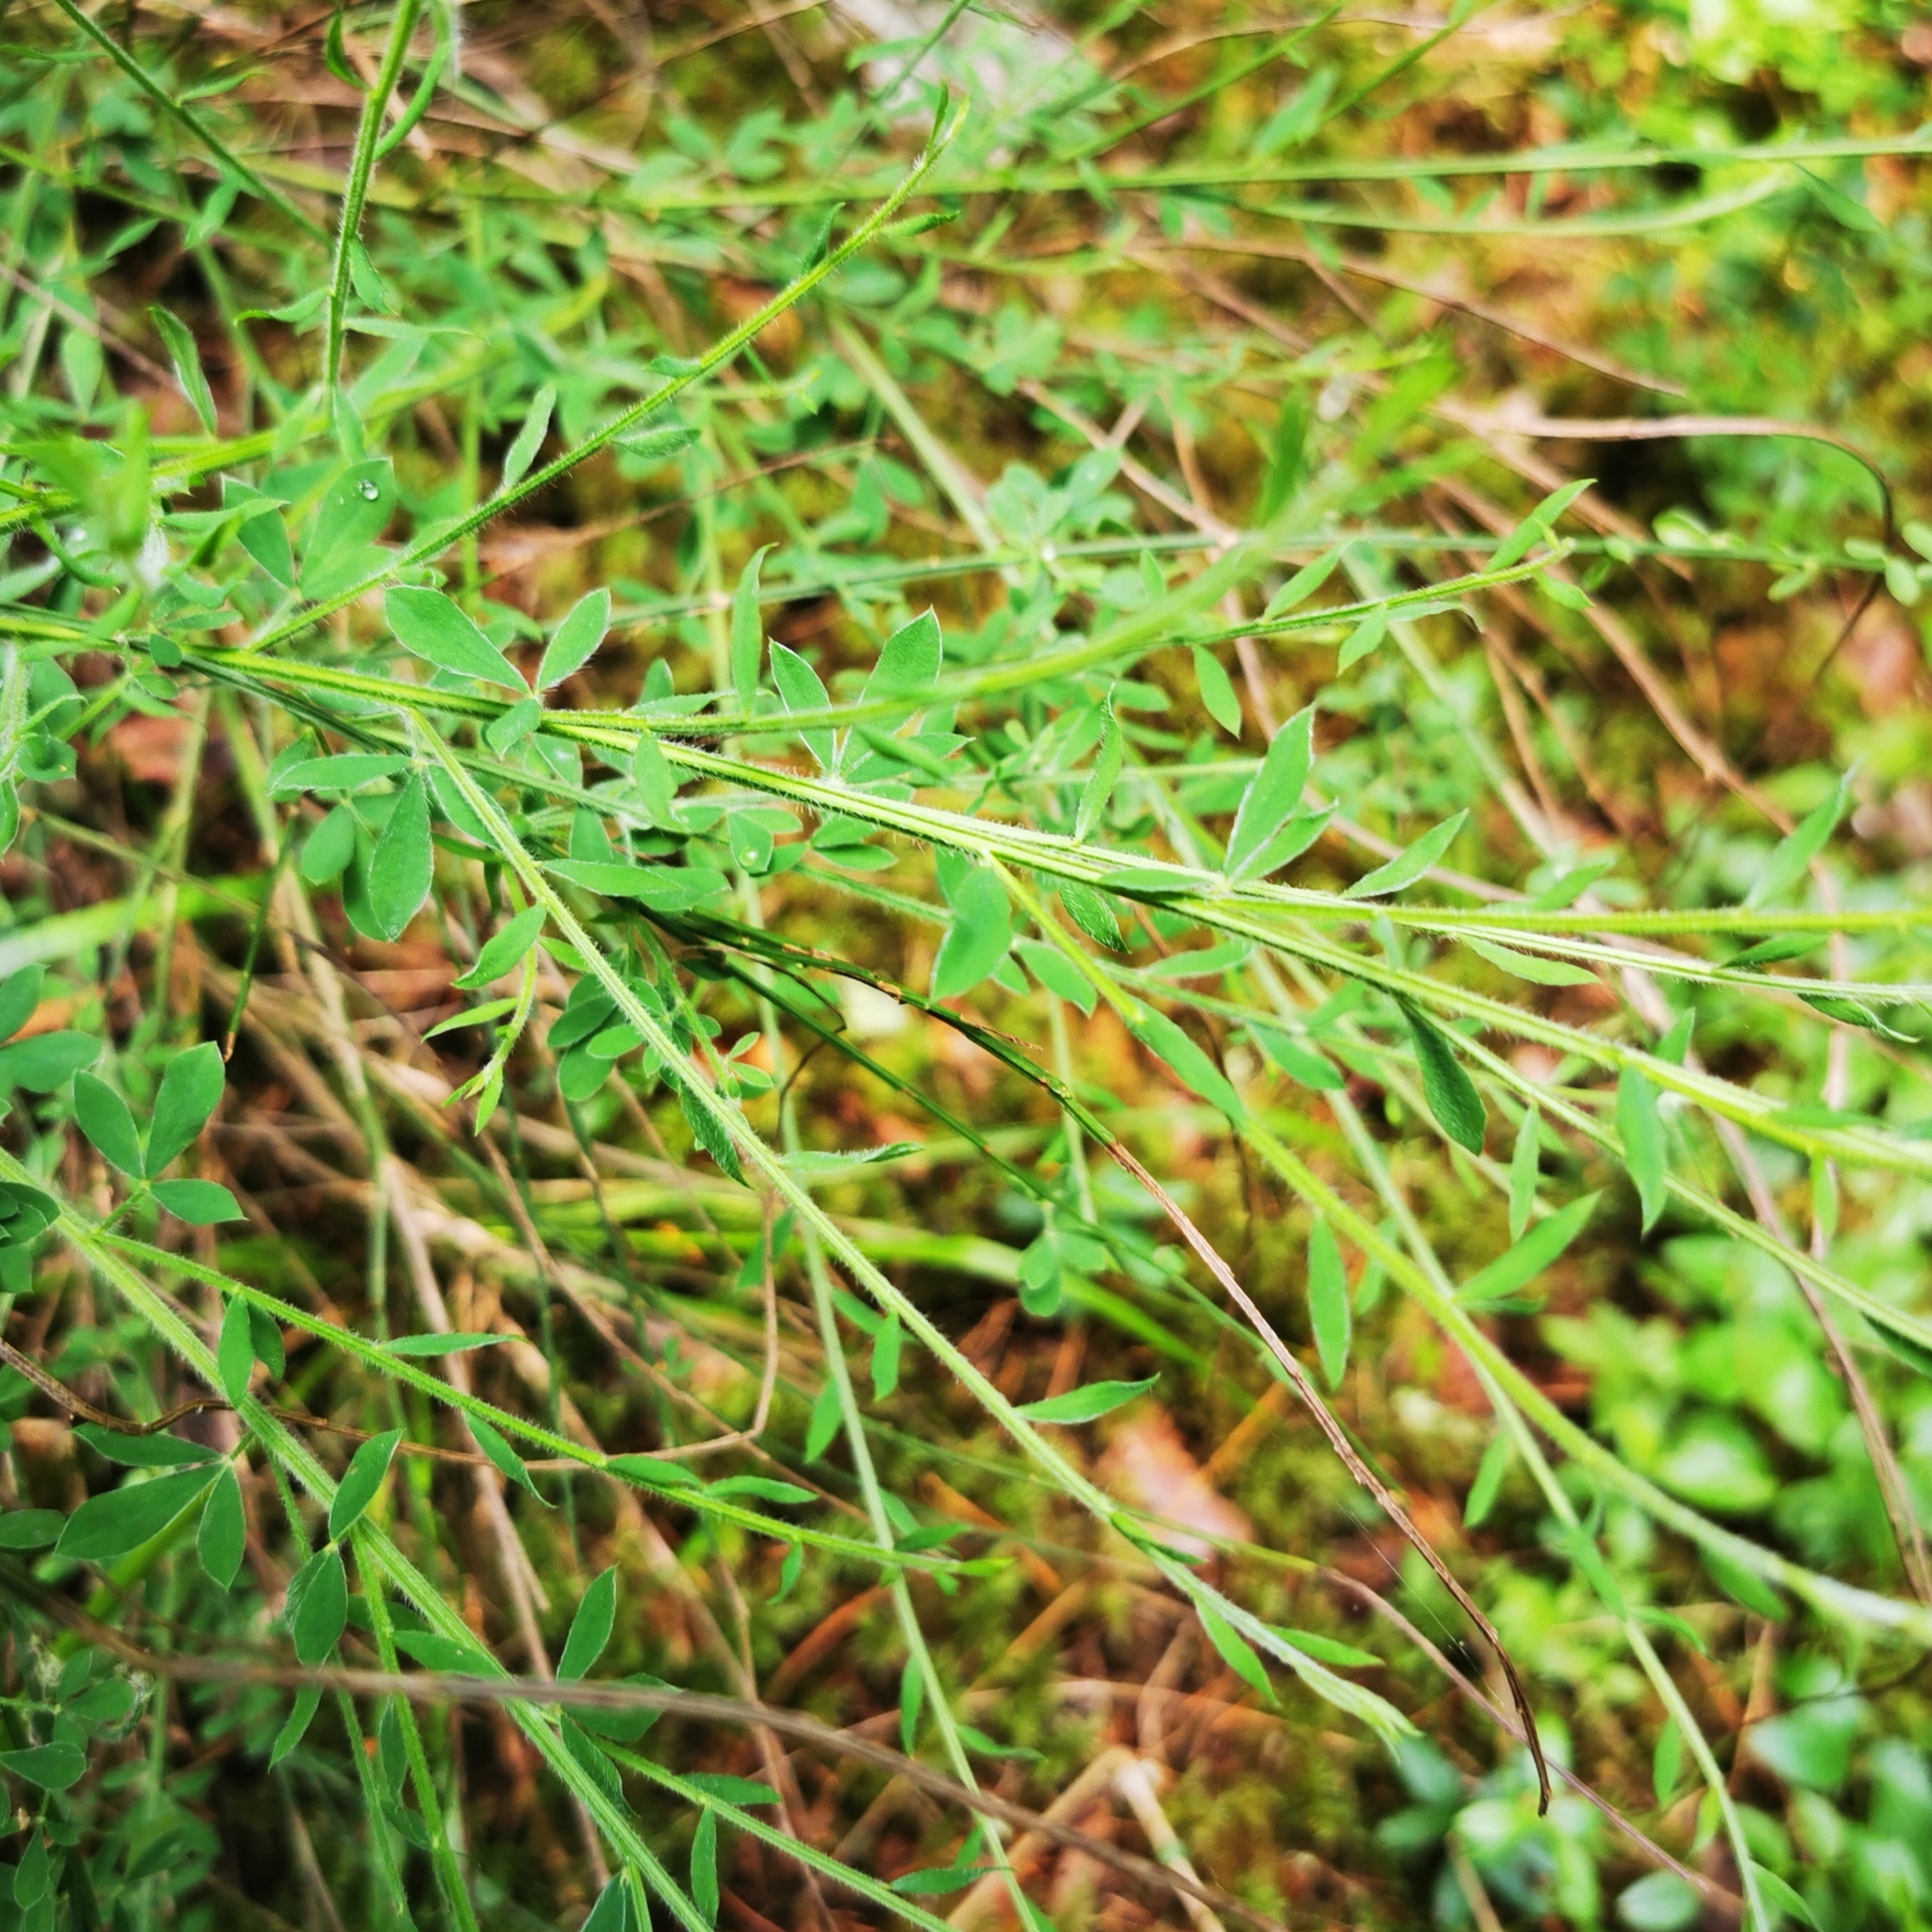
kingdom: Plantae
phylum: Tracheophyta
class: Magnoliopsida
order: Fabales
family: Fabaceae
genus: Cytisus
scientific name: Cytisus scoparius
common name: Scotch broom
